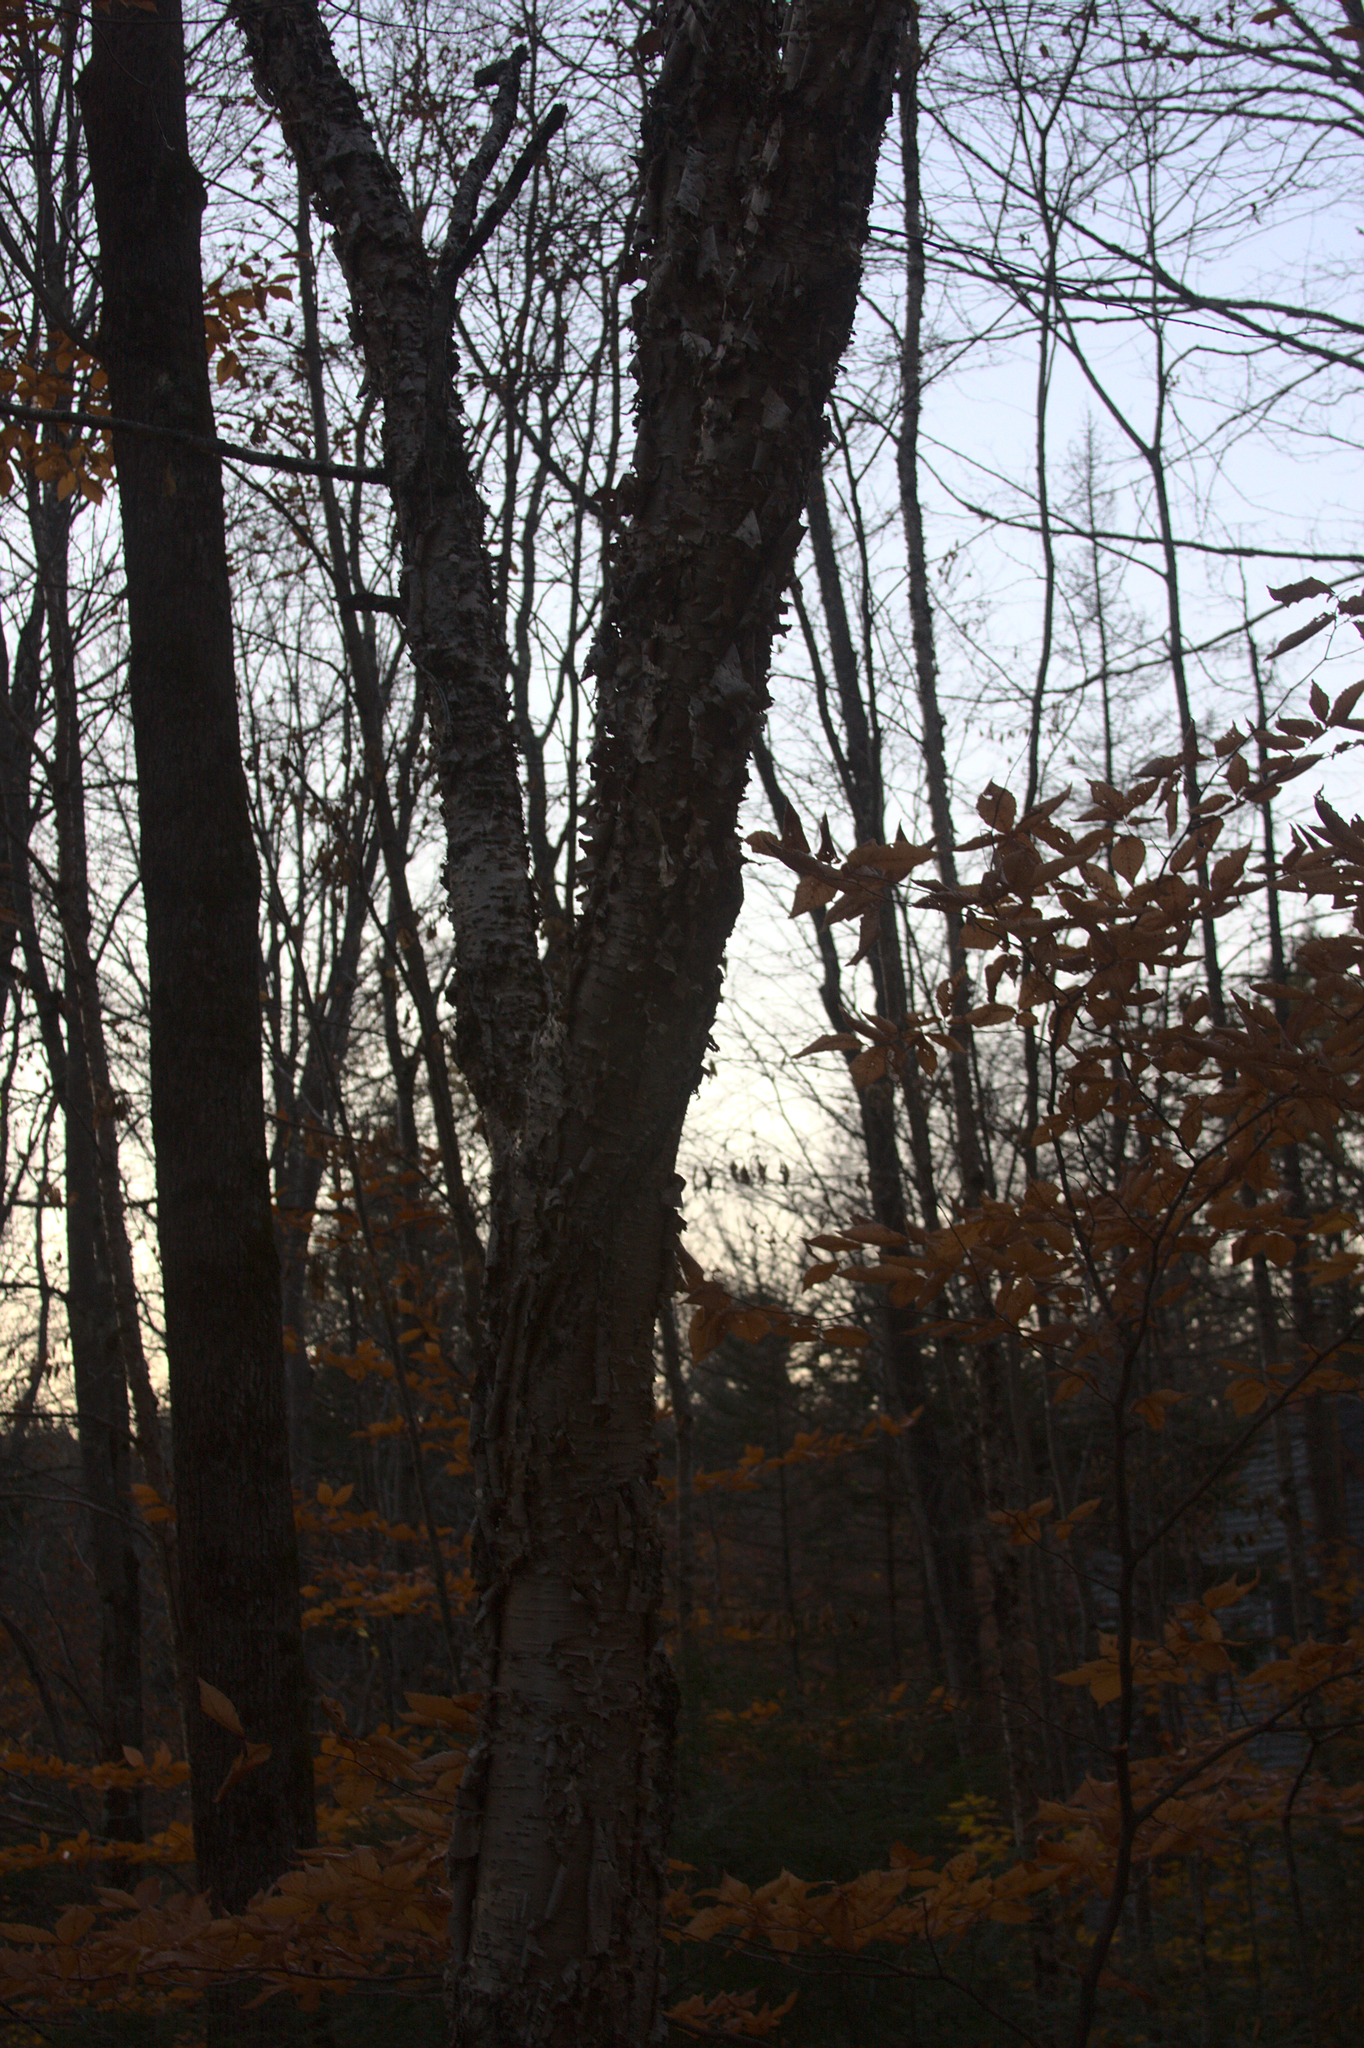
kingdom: Plantae
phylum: Tracheophyta
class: Magnoliopsida
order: Fagales
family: Betulaceae
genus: Betula
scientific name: Betula alleghaniensis
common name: Yellow birch
